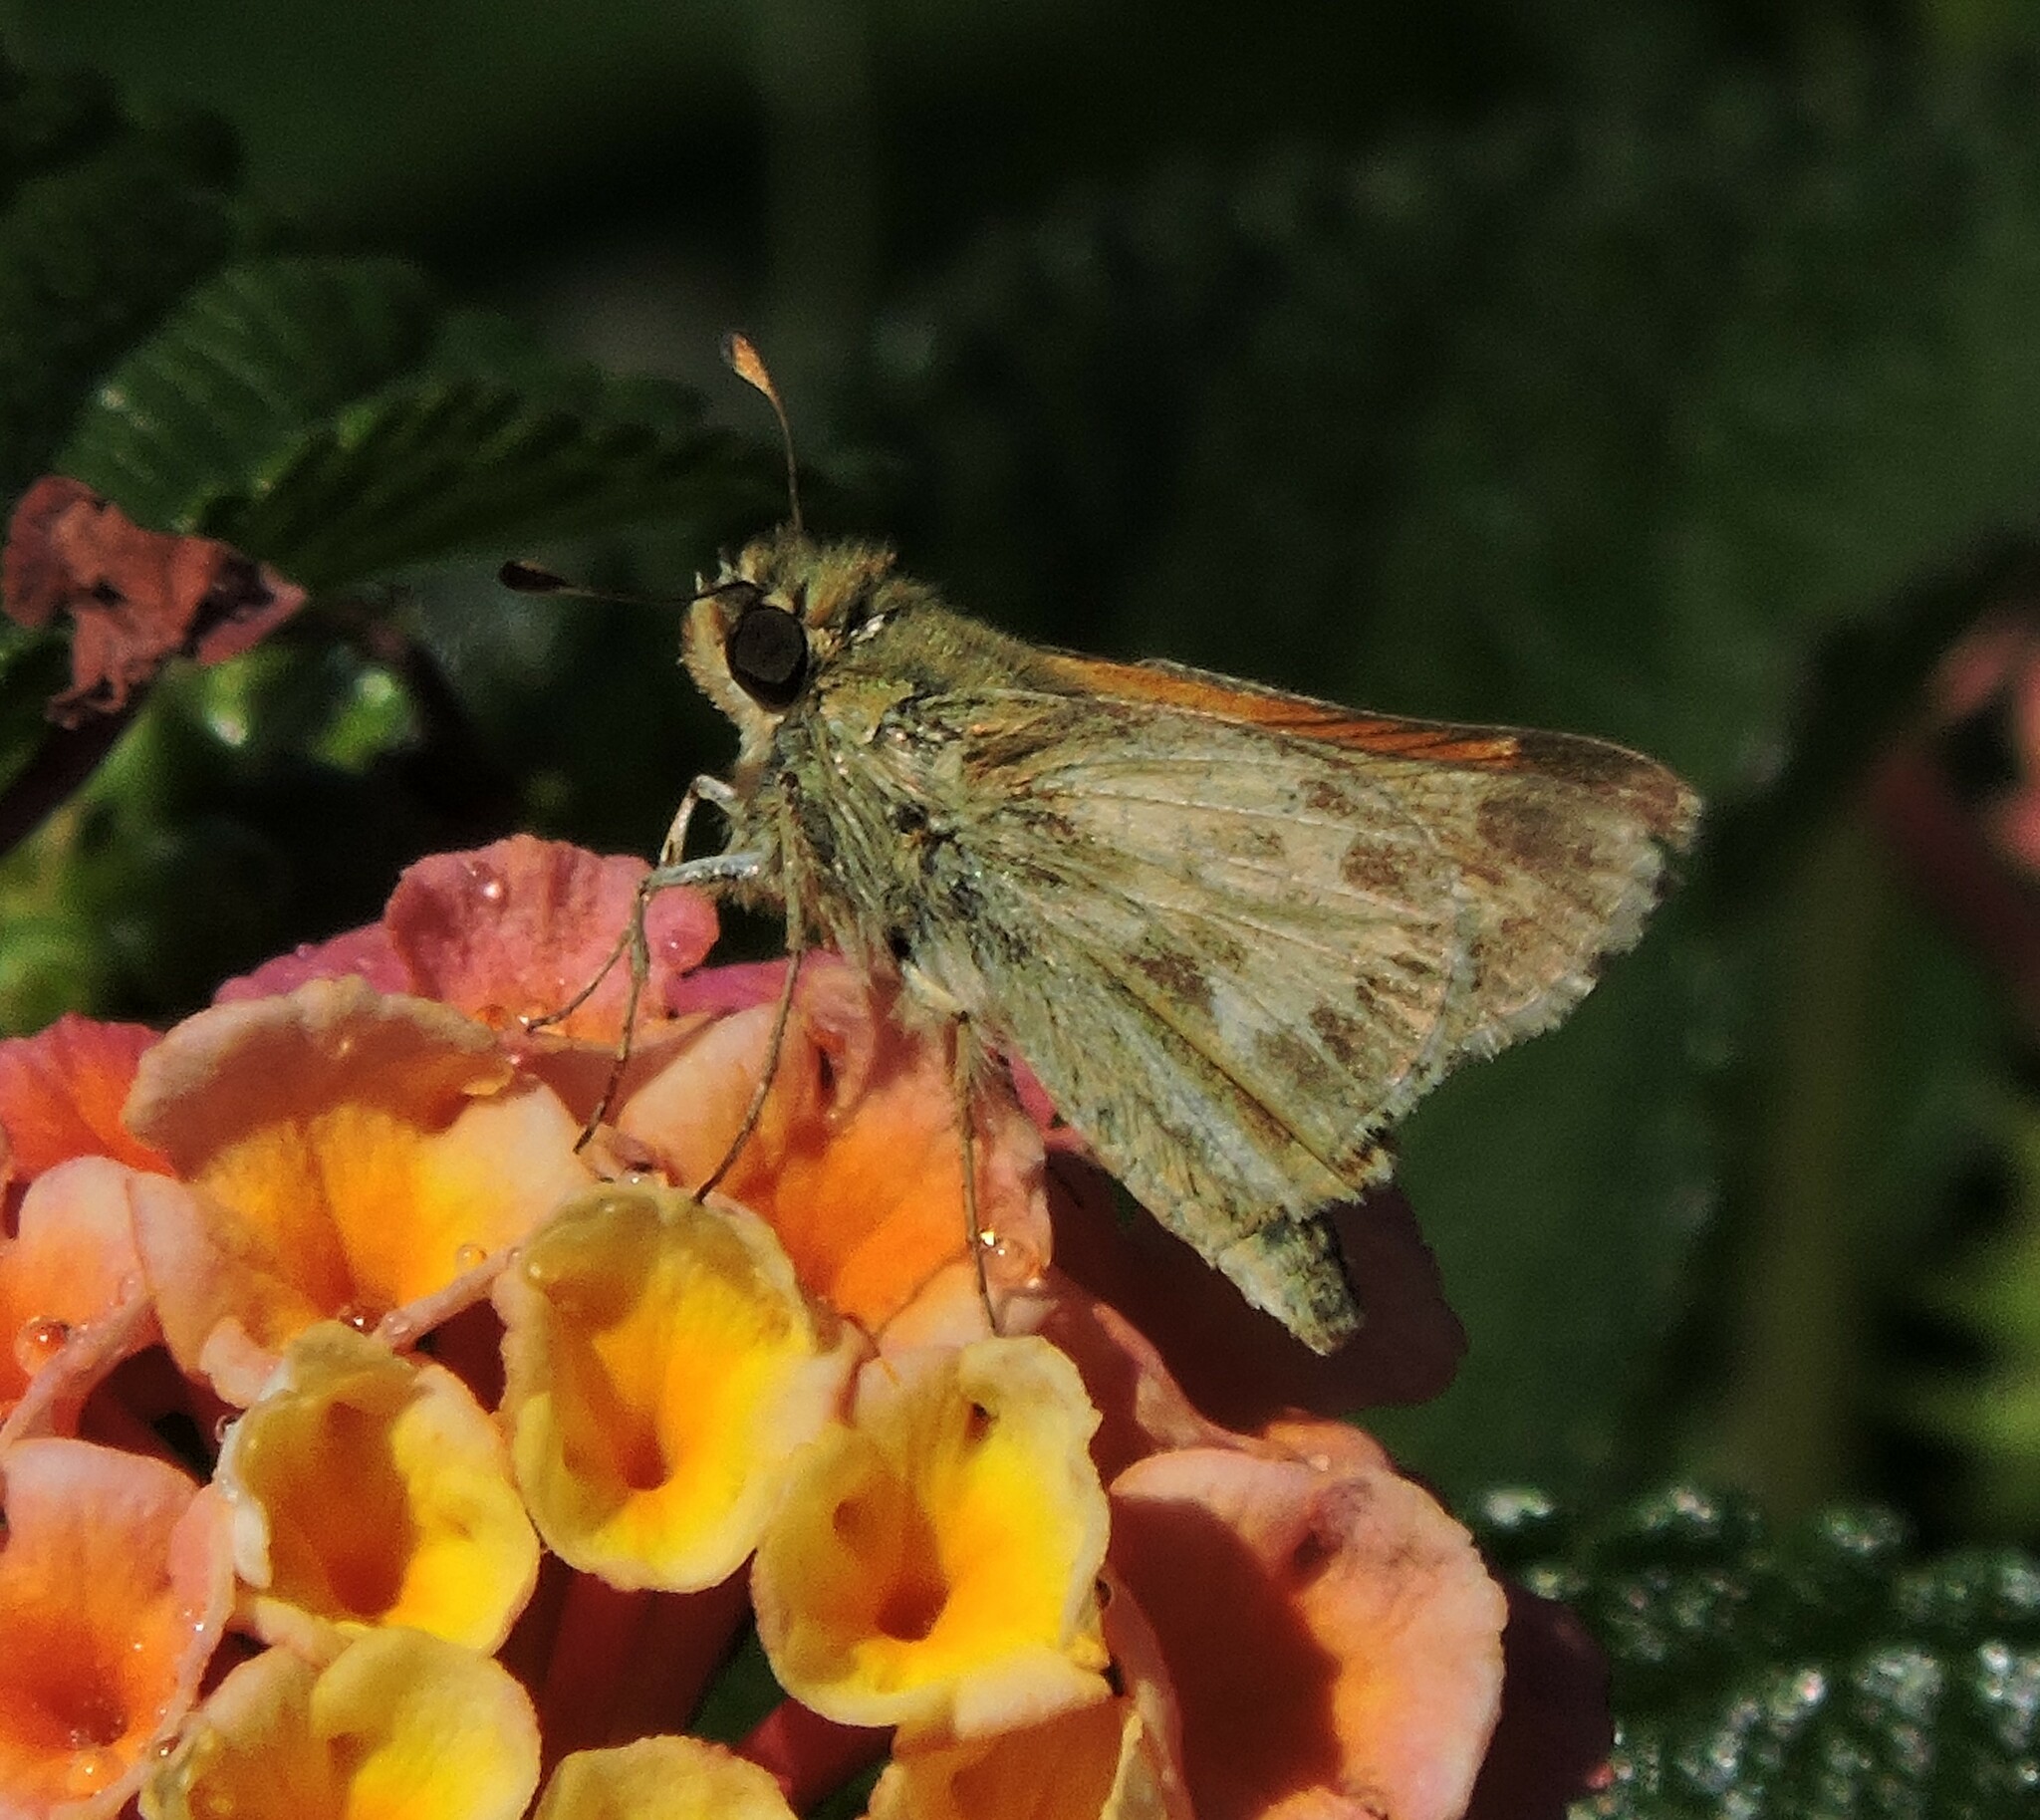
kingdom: Animalia
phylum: Arthropoda
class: Insecta
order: Lepidoptera
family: Hesperiidae
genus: Atalopedes
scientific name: Atalopedes campestris
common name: Sachem
